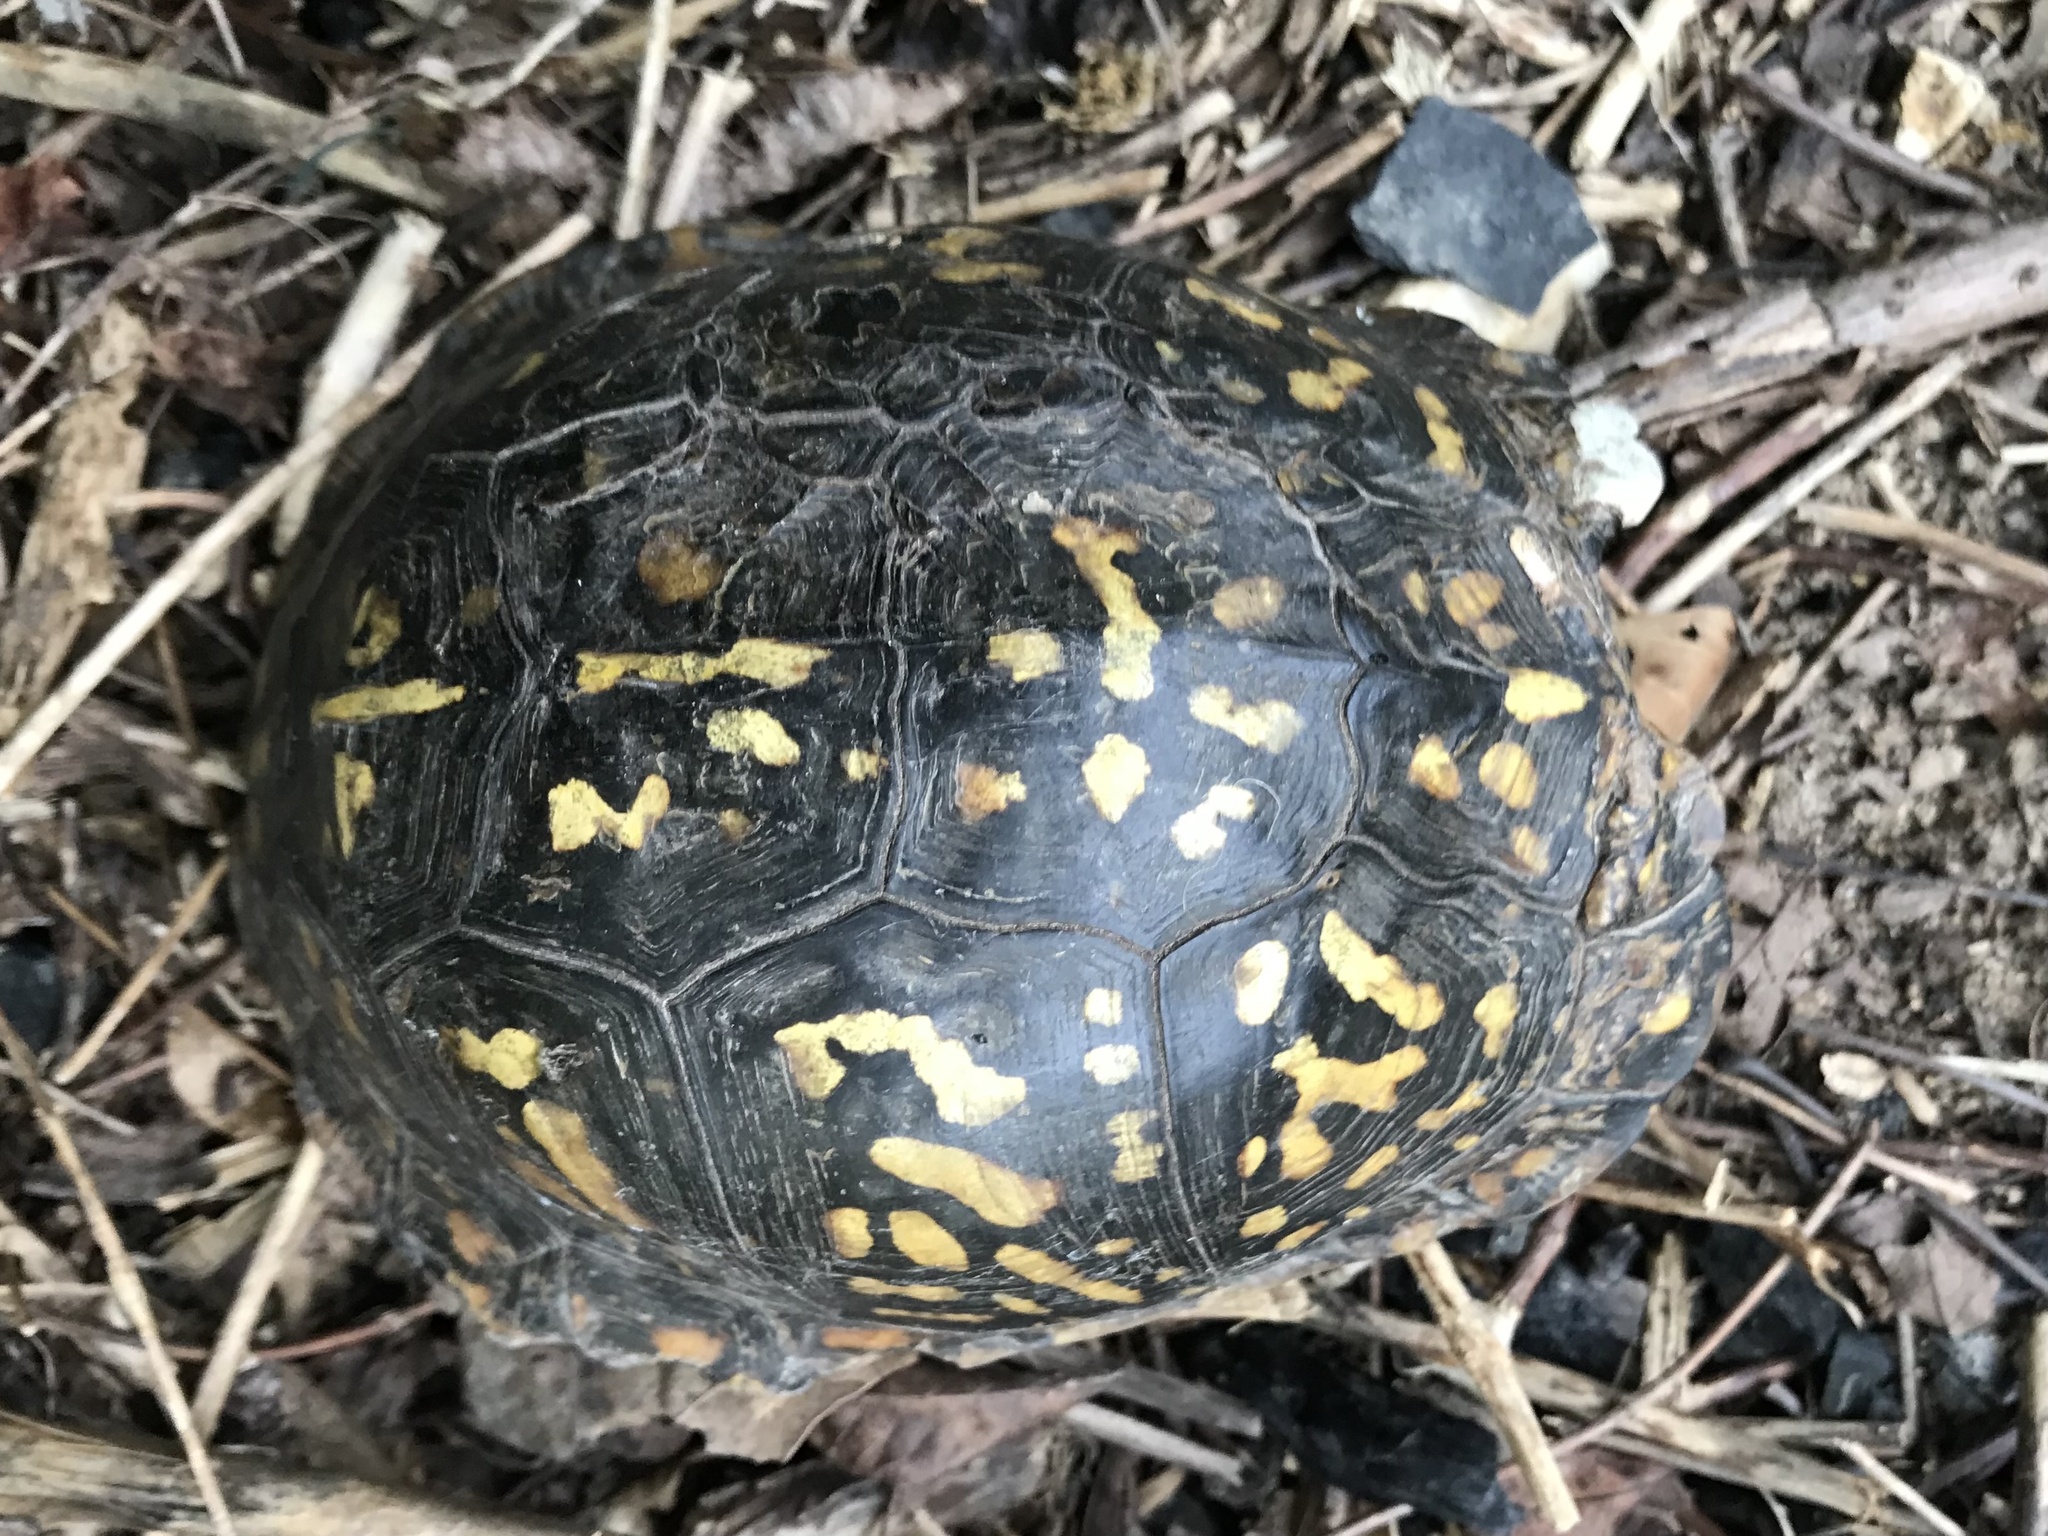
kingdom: Animalia
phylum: Chordata
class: Testudines
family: Emydidae
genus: Terrapene
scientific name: Terrapene carolina
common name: Common box turtle
